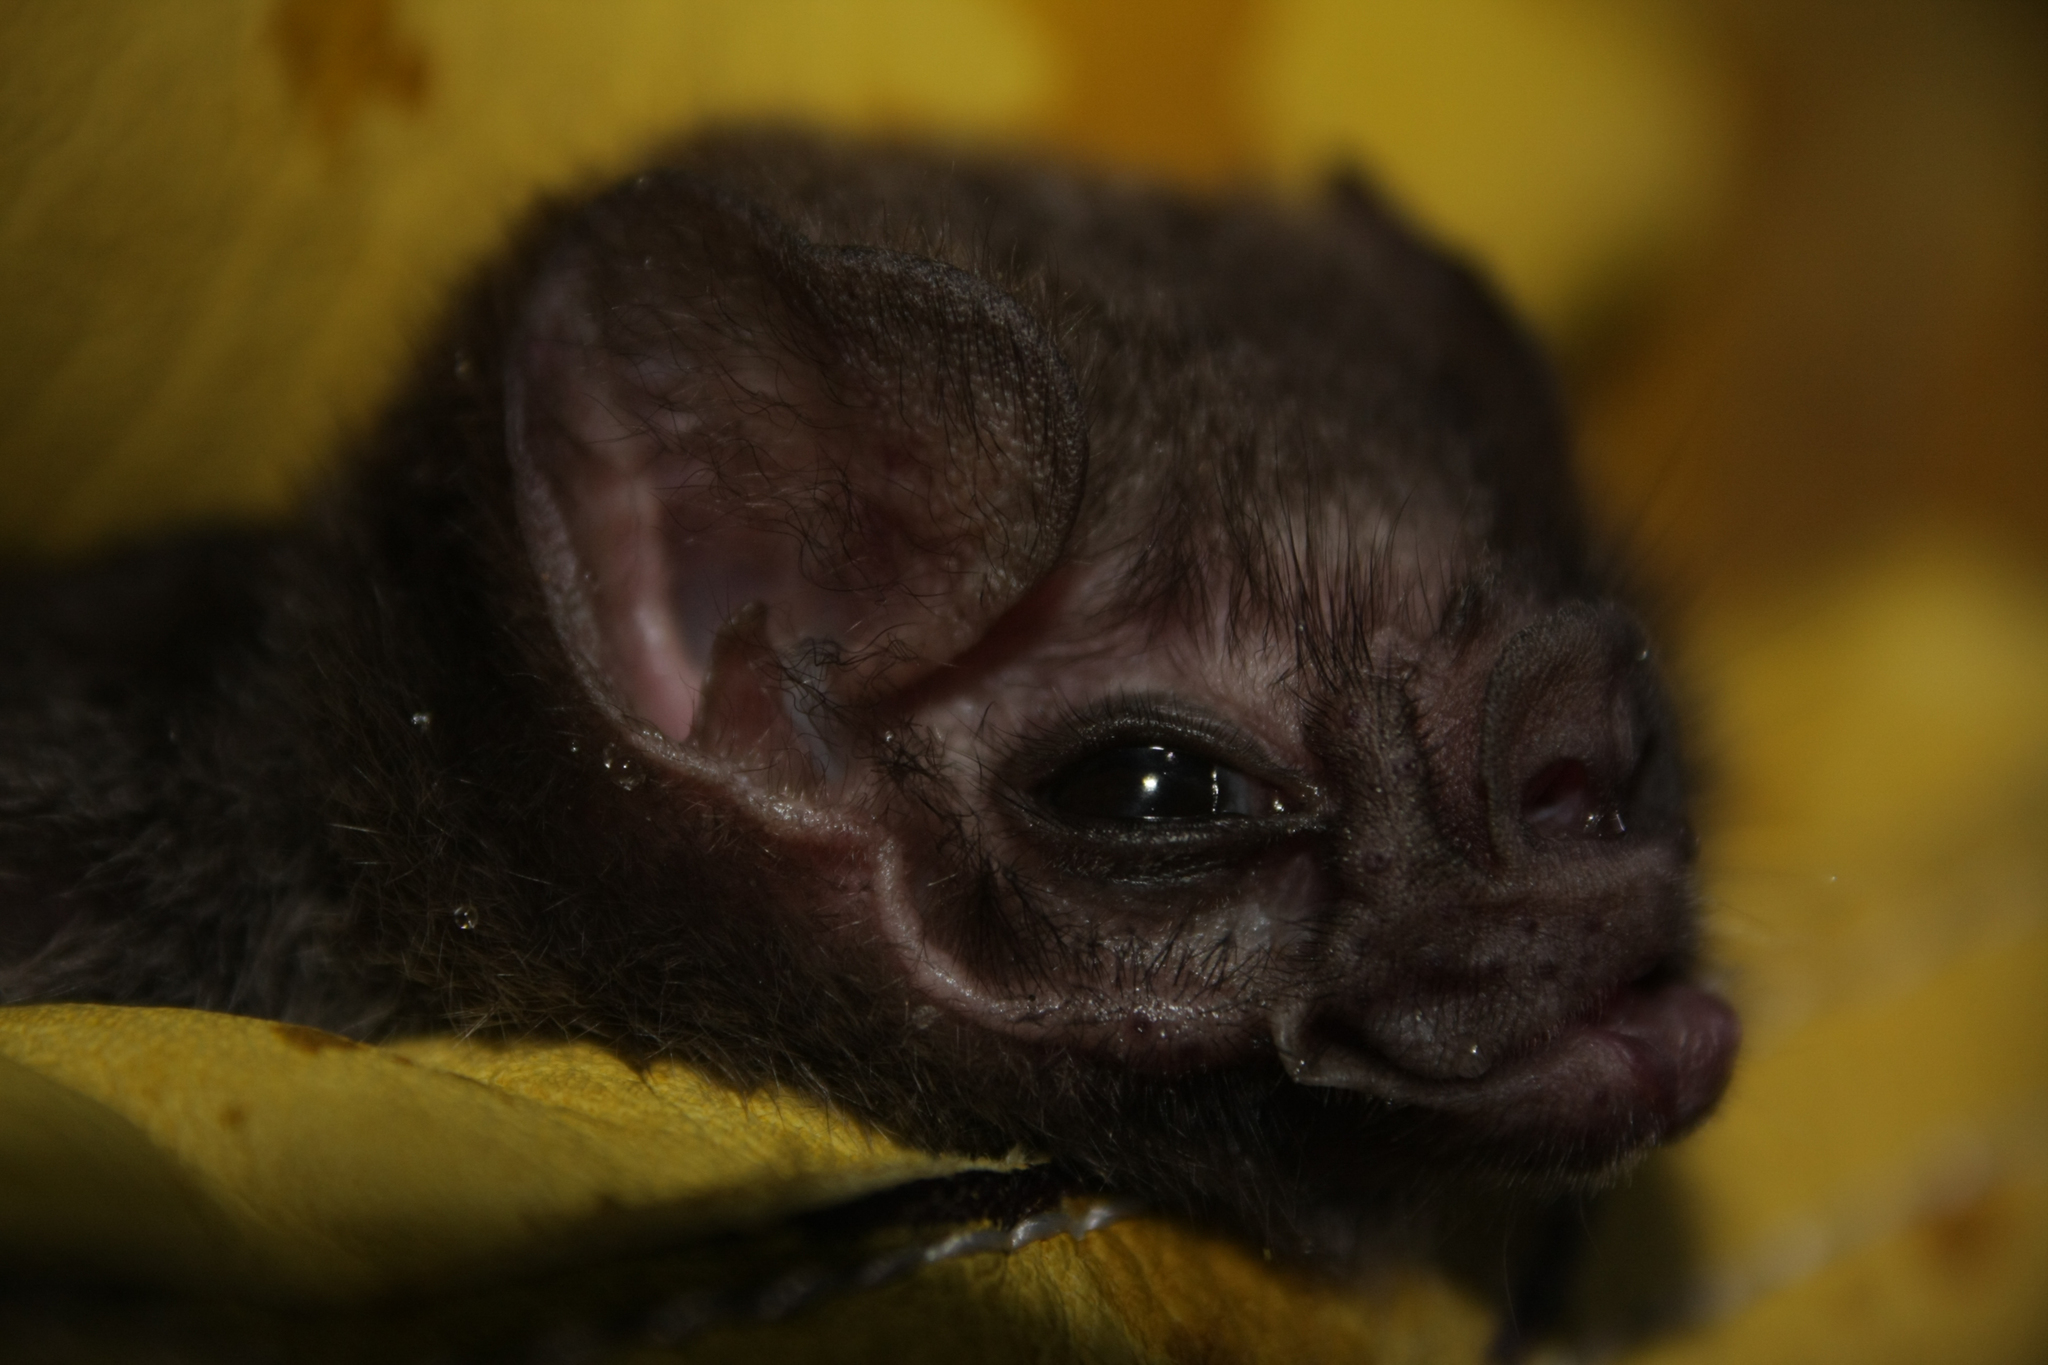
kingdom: Animalia
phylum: Chordata
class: Mammalia
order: Chiroptera
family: Phyllostomidae
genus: Diphylla
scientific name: Diphylla ecaudata
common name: Hairy-legged vampire bat
